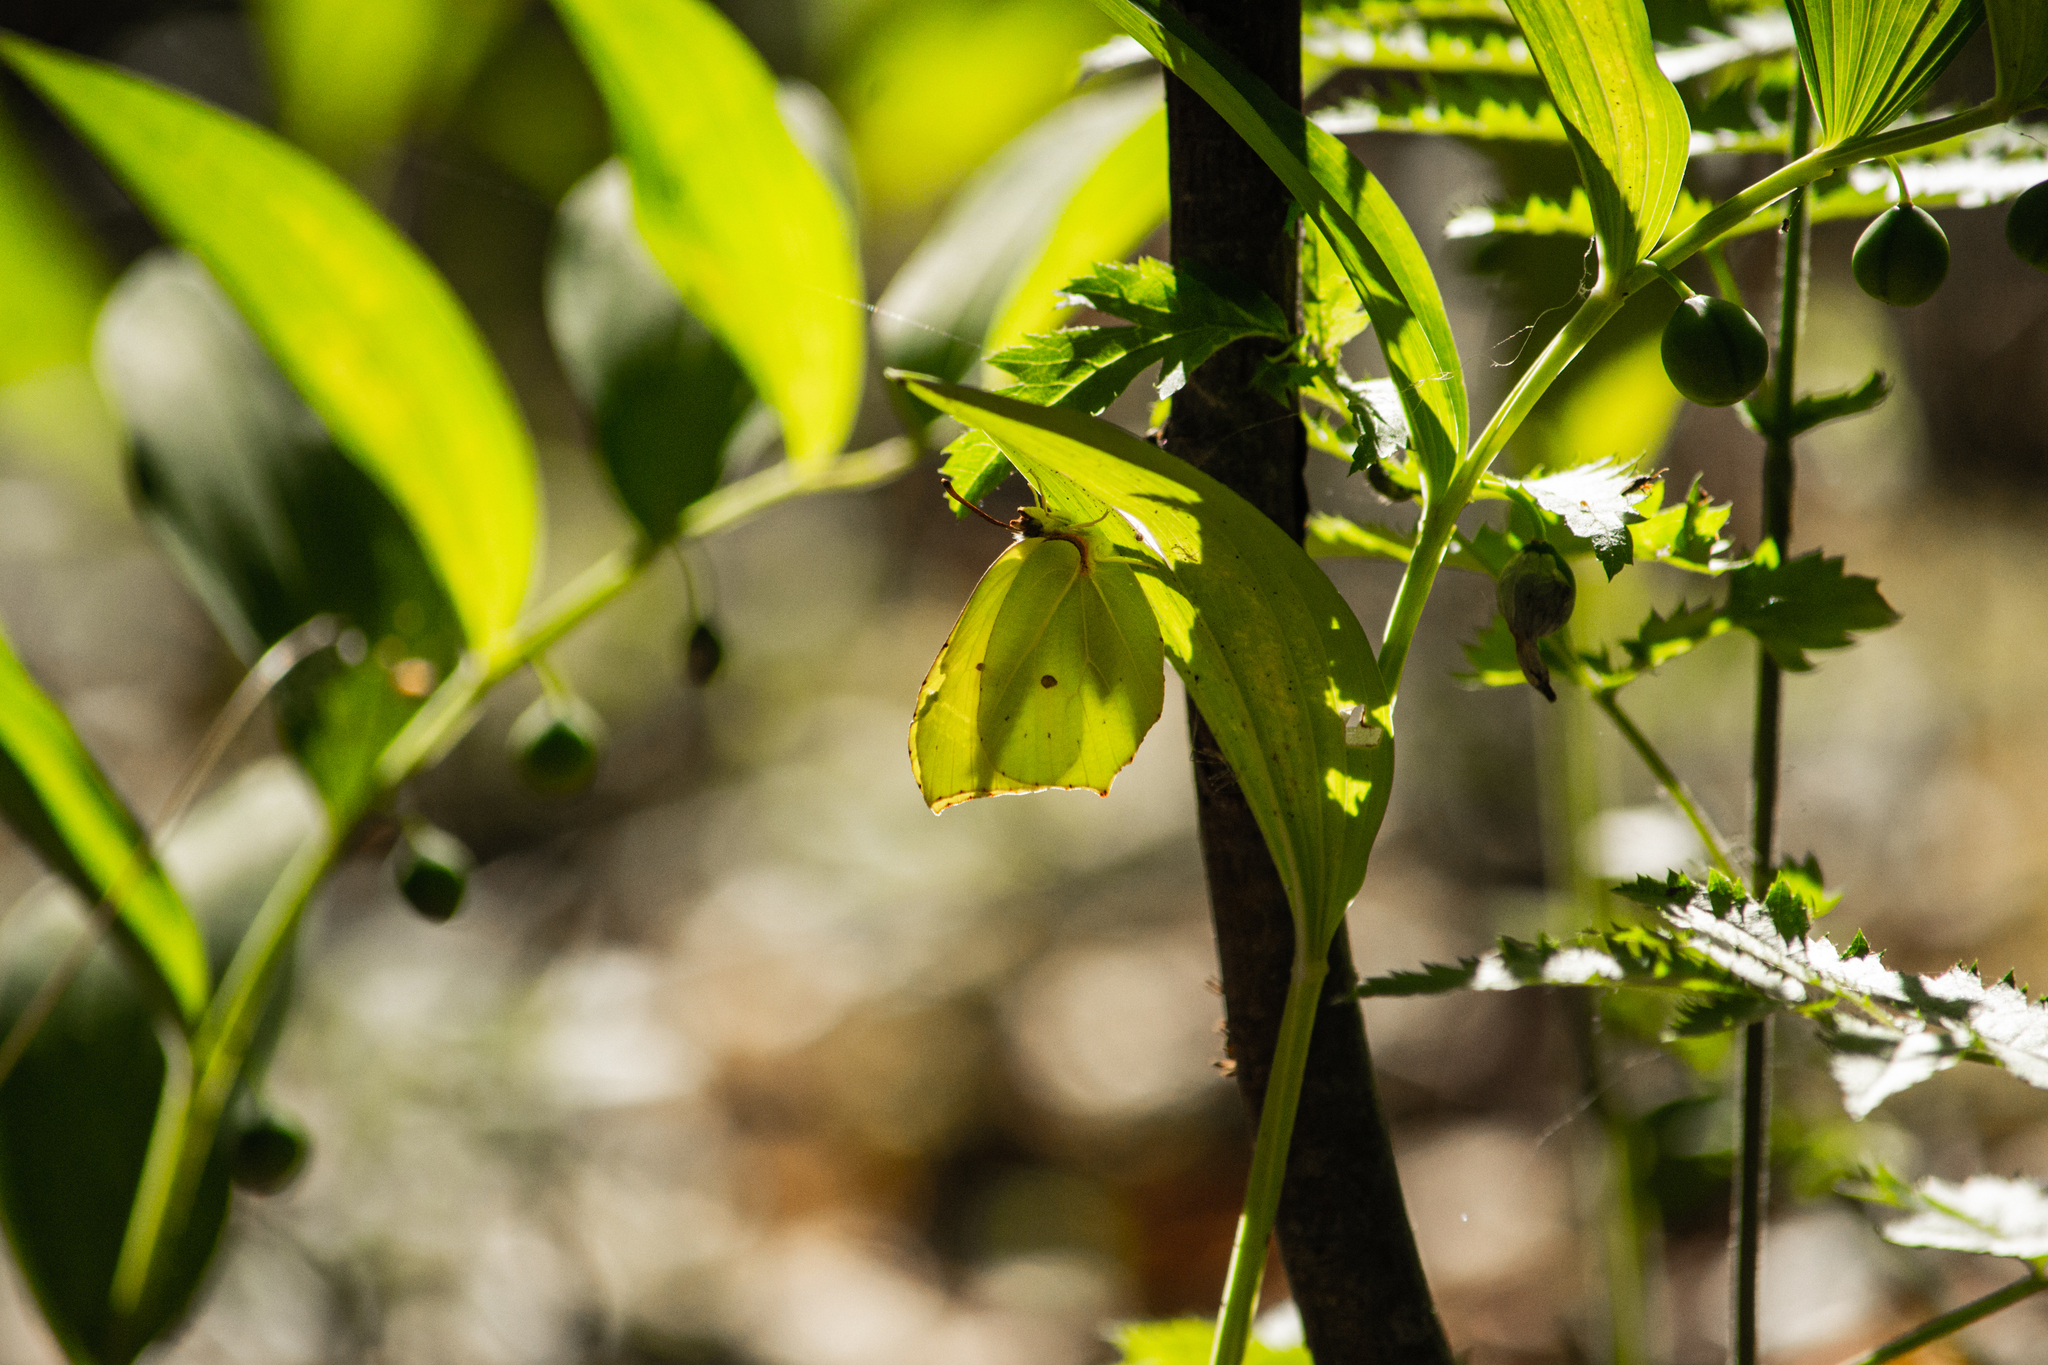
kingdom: Animalia
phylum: Arthropoda
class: Insecta
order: Lepidoptera
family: Pieridae
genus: Gonepteryx
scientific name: Gonepteryx rhamni
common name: Brimstone
